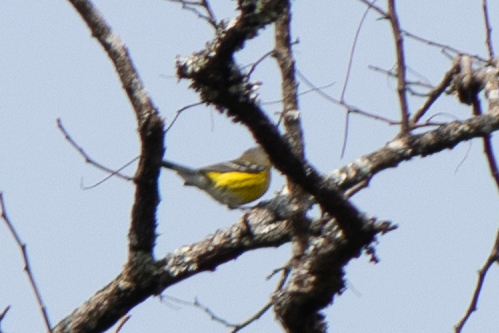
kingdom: Animalia
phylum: Chordata
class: Aves
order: Passeriformes
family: Parulidae
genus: Setophaga
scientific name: Setophaga magnolia
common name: Magnolia warbler
